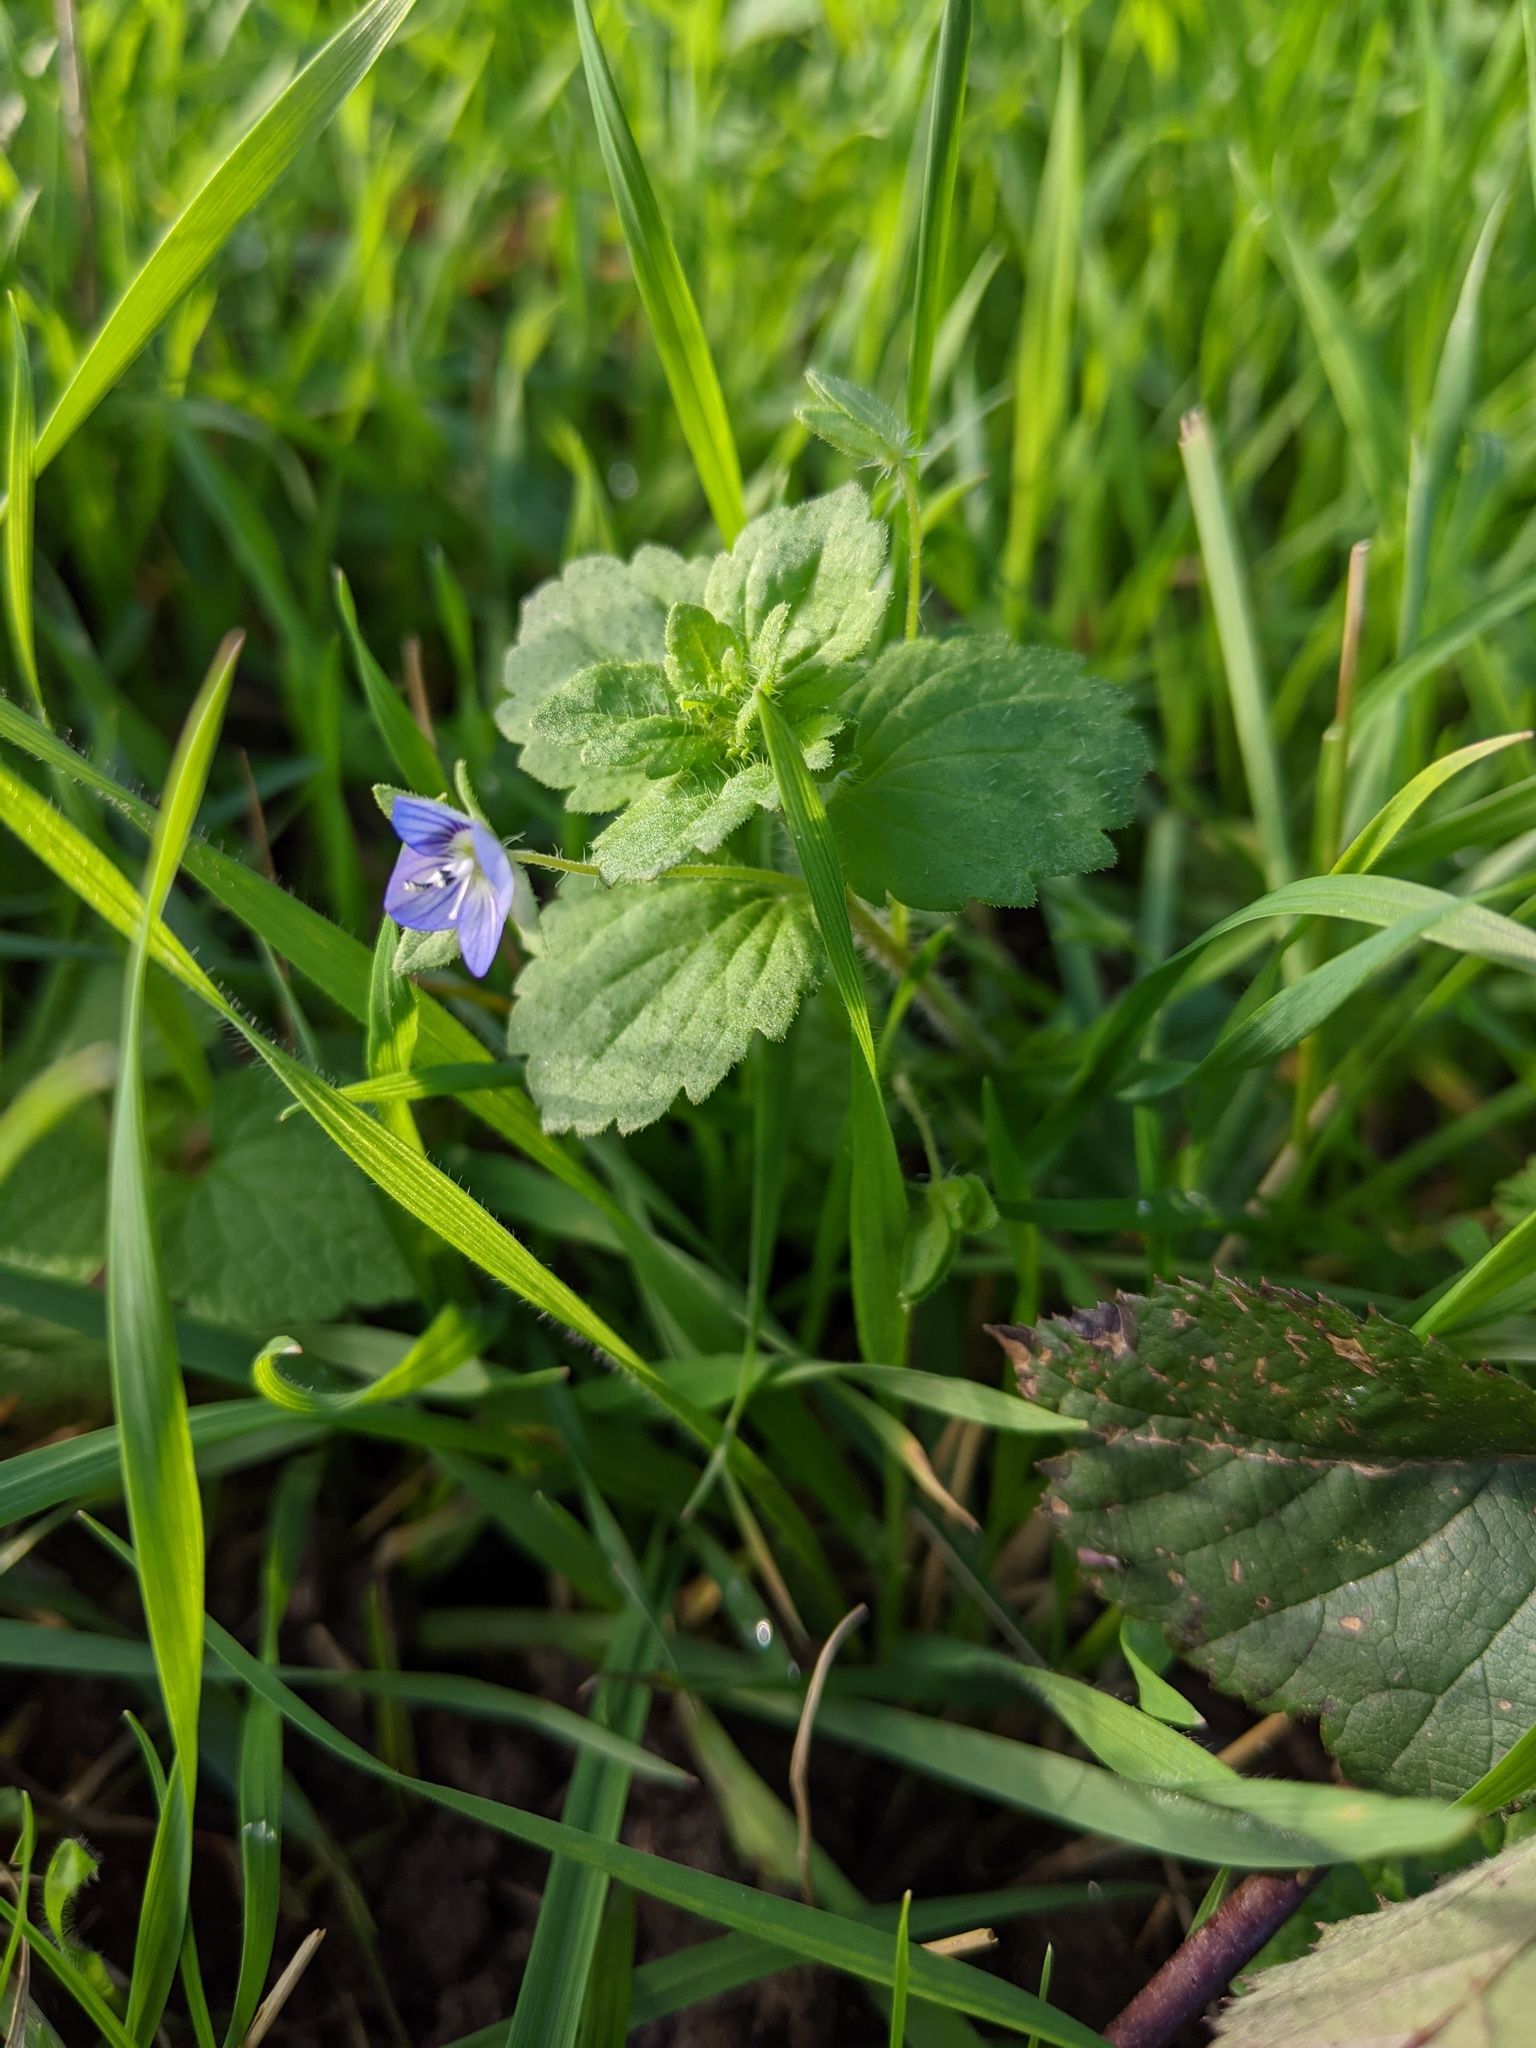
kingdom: Plantae
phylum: Tracheophyta
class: Magnoliopsida
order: Lamiales
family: Plantaginaceae
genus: Veronica
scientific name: Veronica persica
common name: Common field-speedwell
